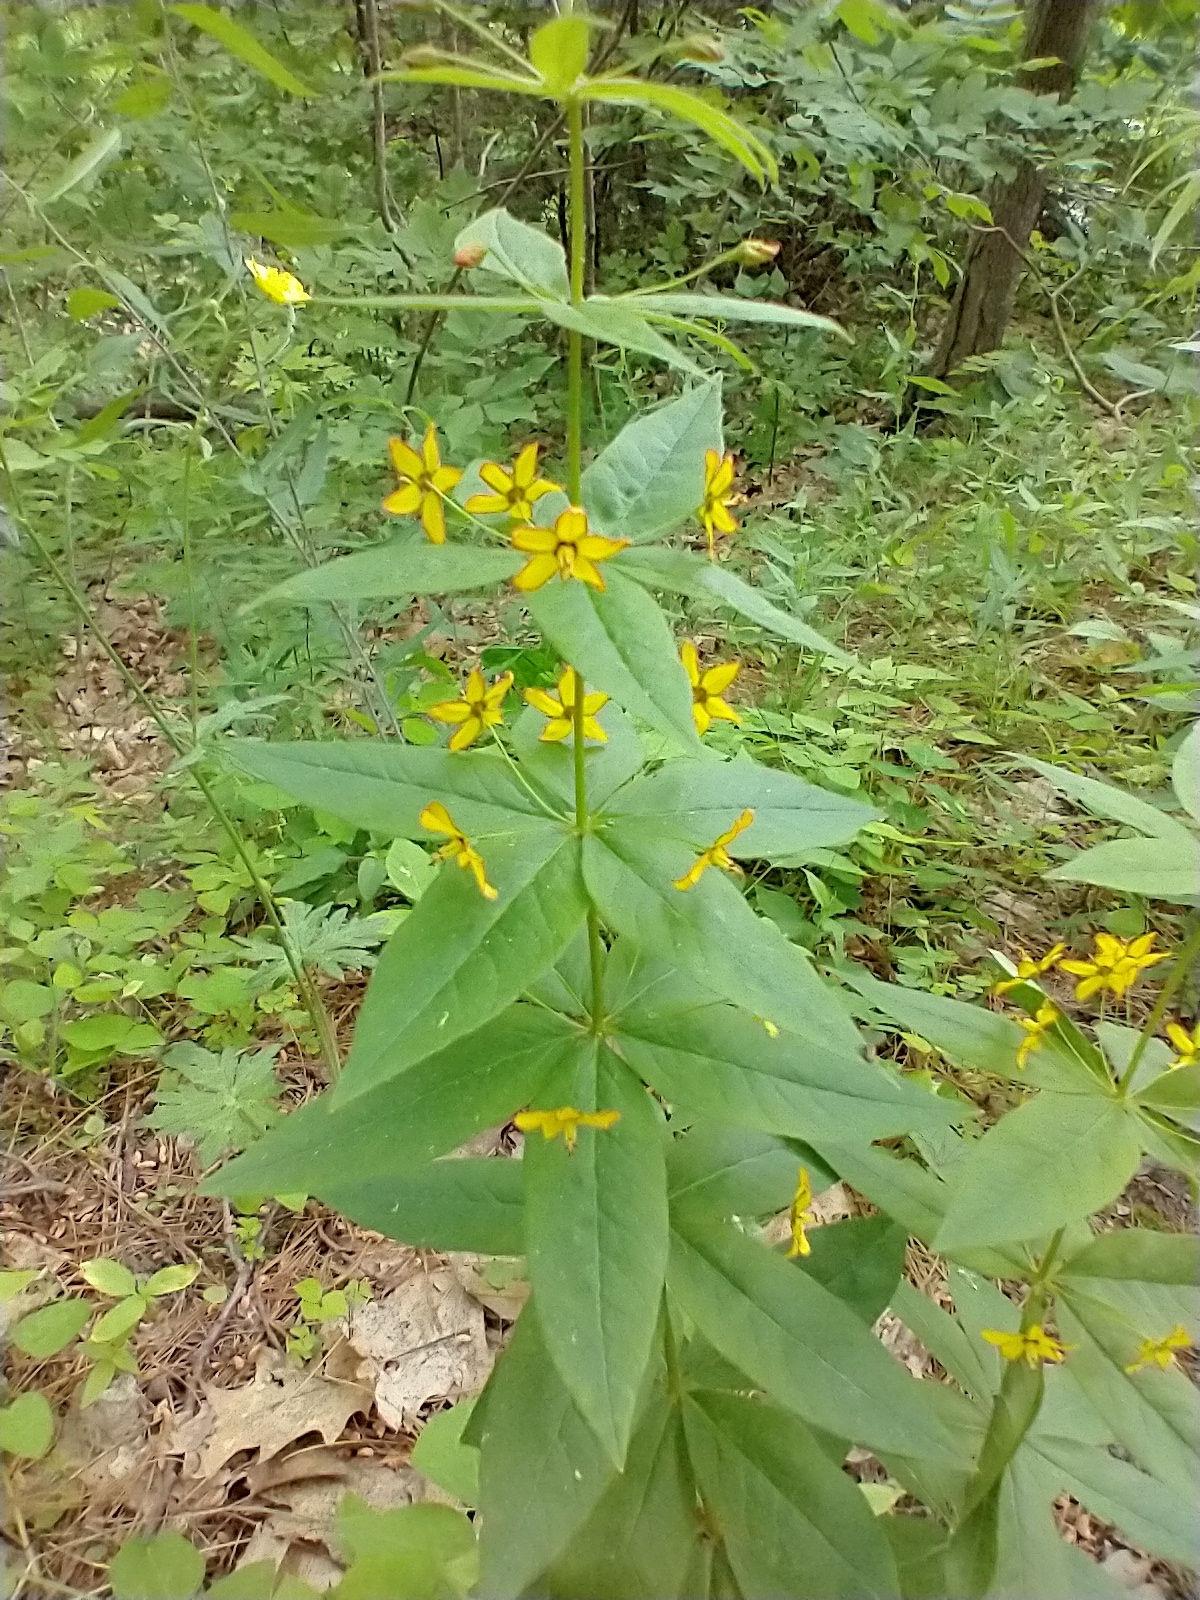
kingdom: Plantae
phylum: Tracheophyta
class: Magnoliopsida
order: Ericales
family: Primulaceae
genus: Lysimachia
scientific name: Lysimachia quadrifolia
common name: Whorled loosestrife
